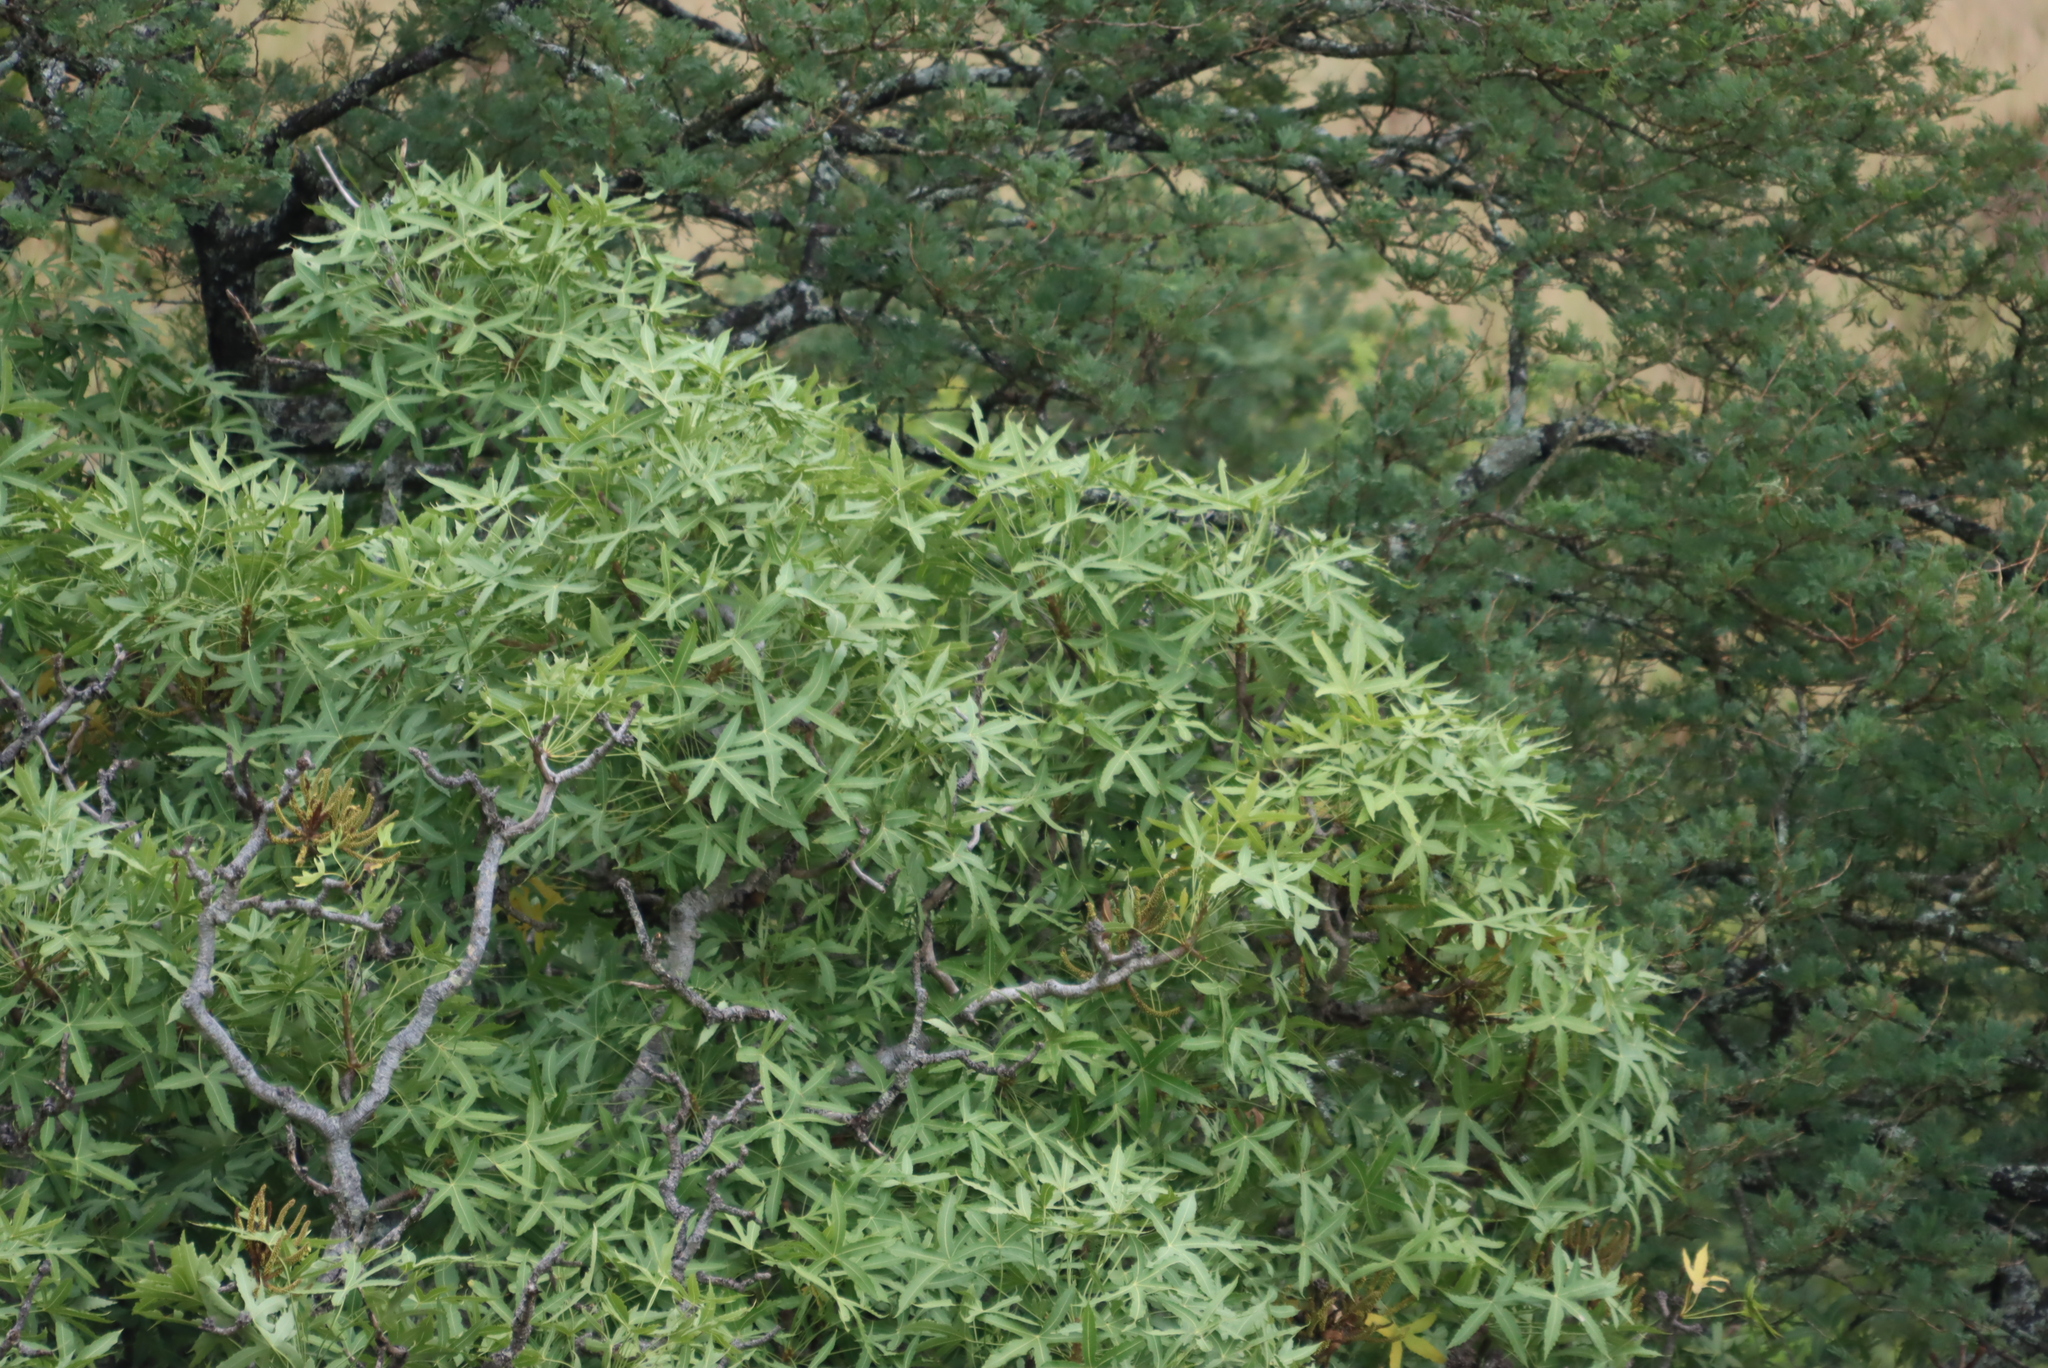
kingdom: Plantae
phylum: Tracheophyta
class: Magnoliopsida
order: Apiales
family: Araliaceae
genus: Cussonia
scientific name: Cussonia natalensis
